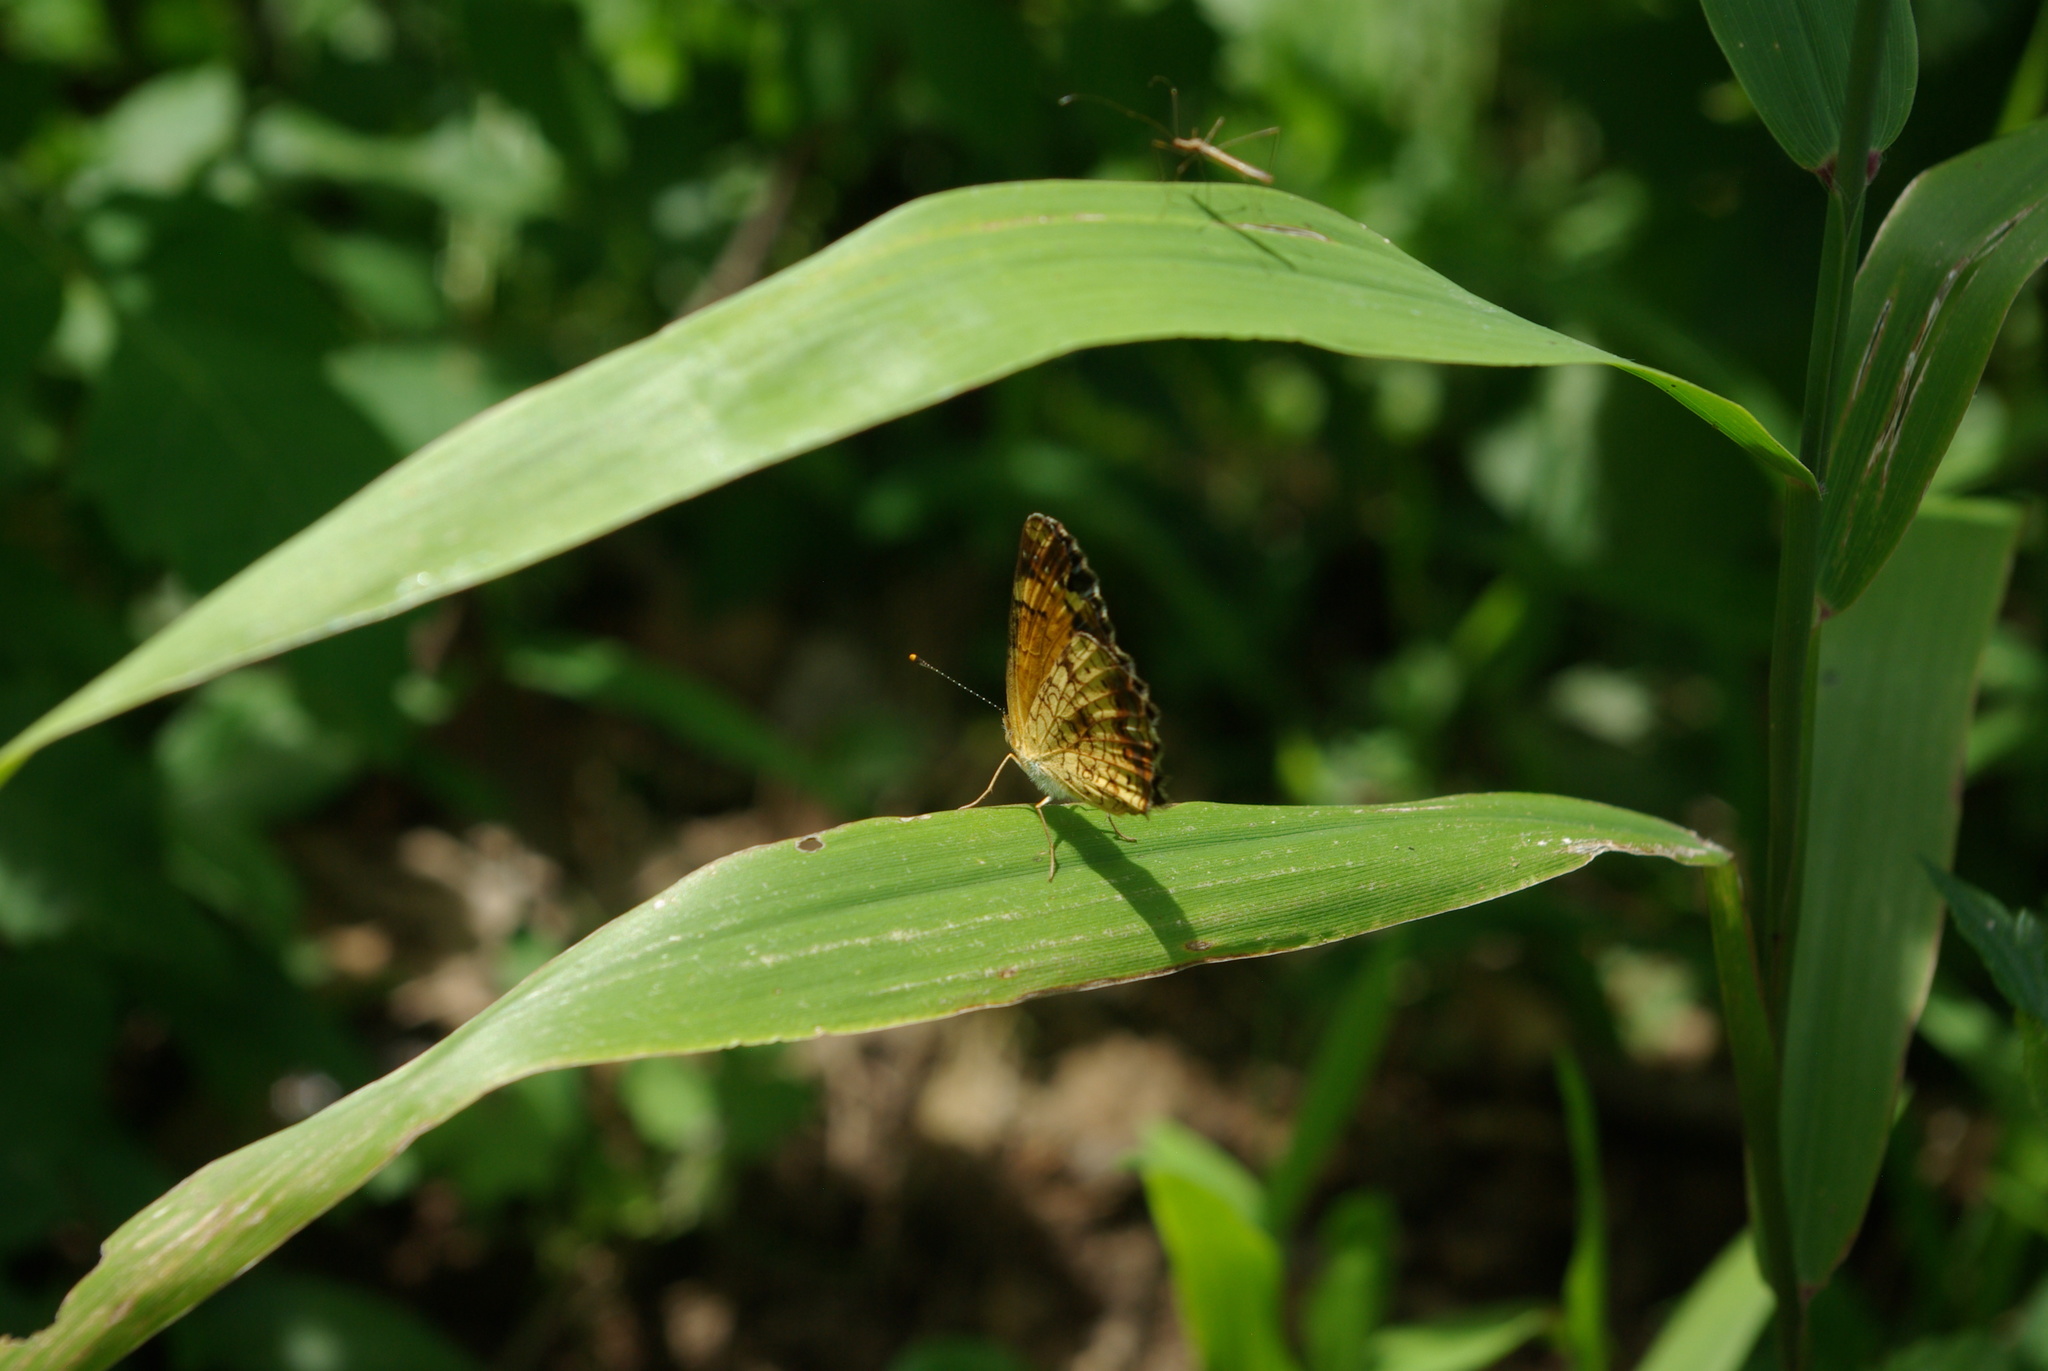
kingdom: Animalia
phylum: Arthropoda
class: Insecta
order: Lepidoptera
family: Nymphalidae
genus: Phyciodes
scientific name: Phyciodes tharos
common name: Pearl crescent
